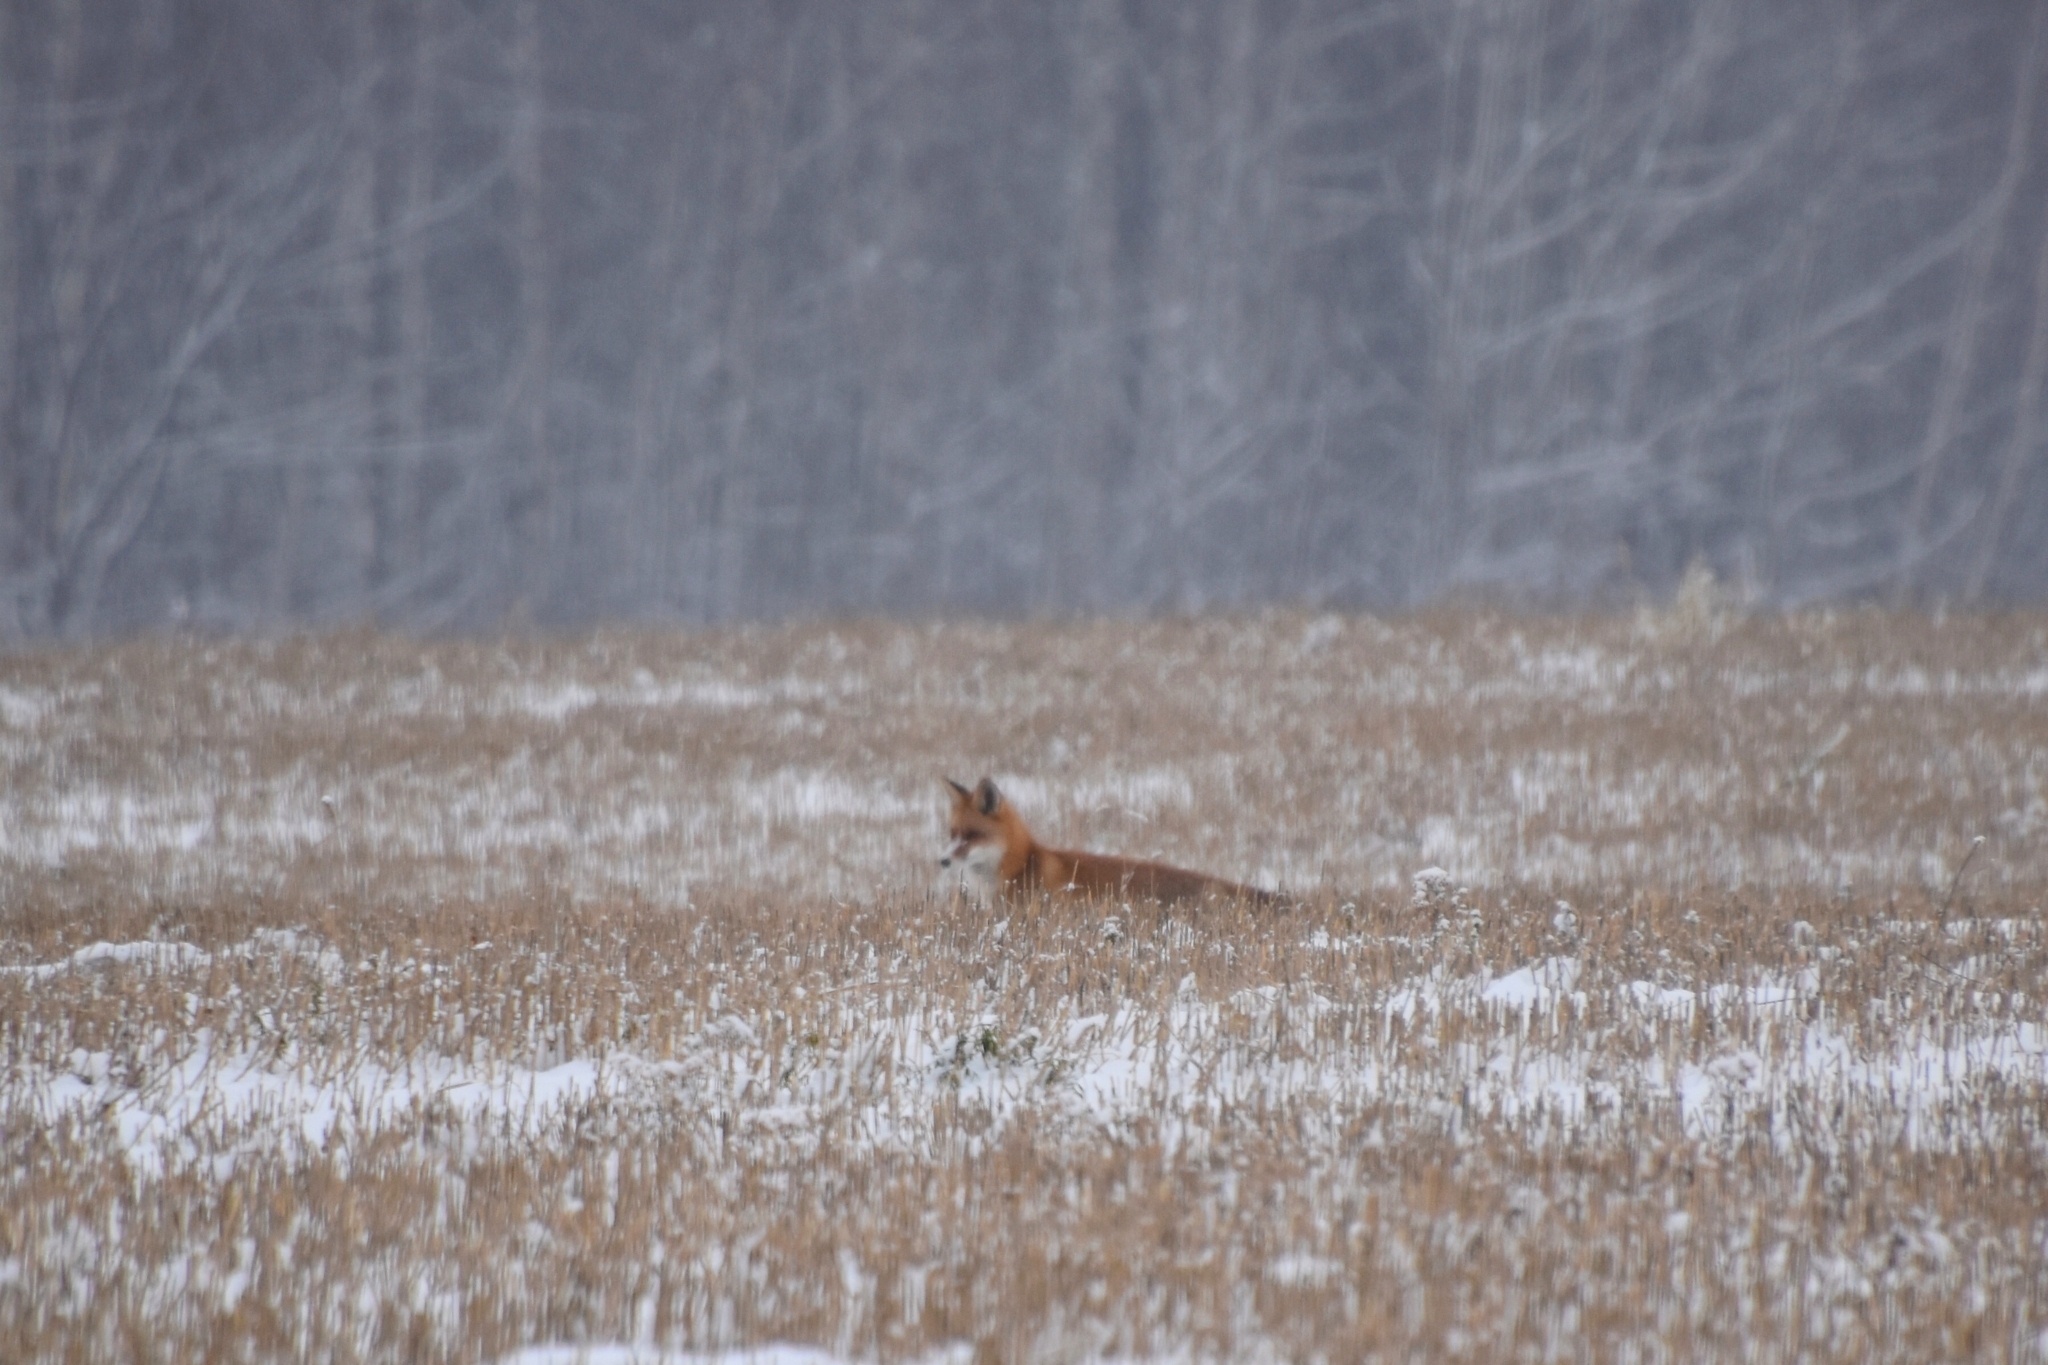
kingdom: Animalia
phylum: Chordata
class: Mammalia
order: Carnivora
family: Canidae
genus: Vulpes
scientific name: Vulpes vulpes
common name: Red fox
